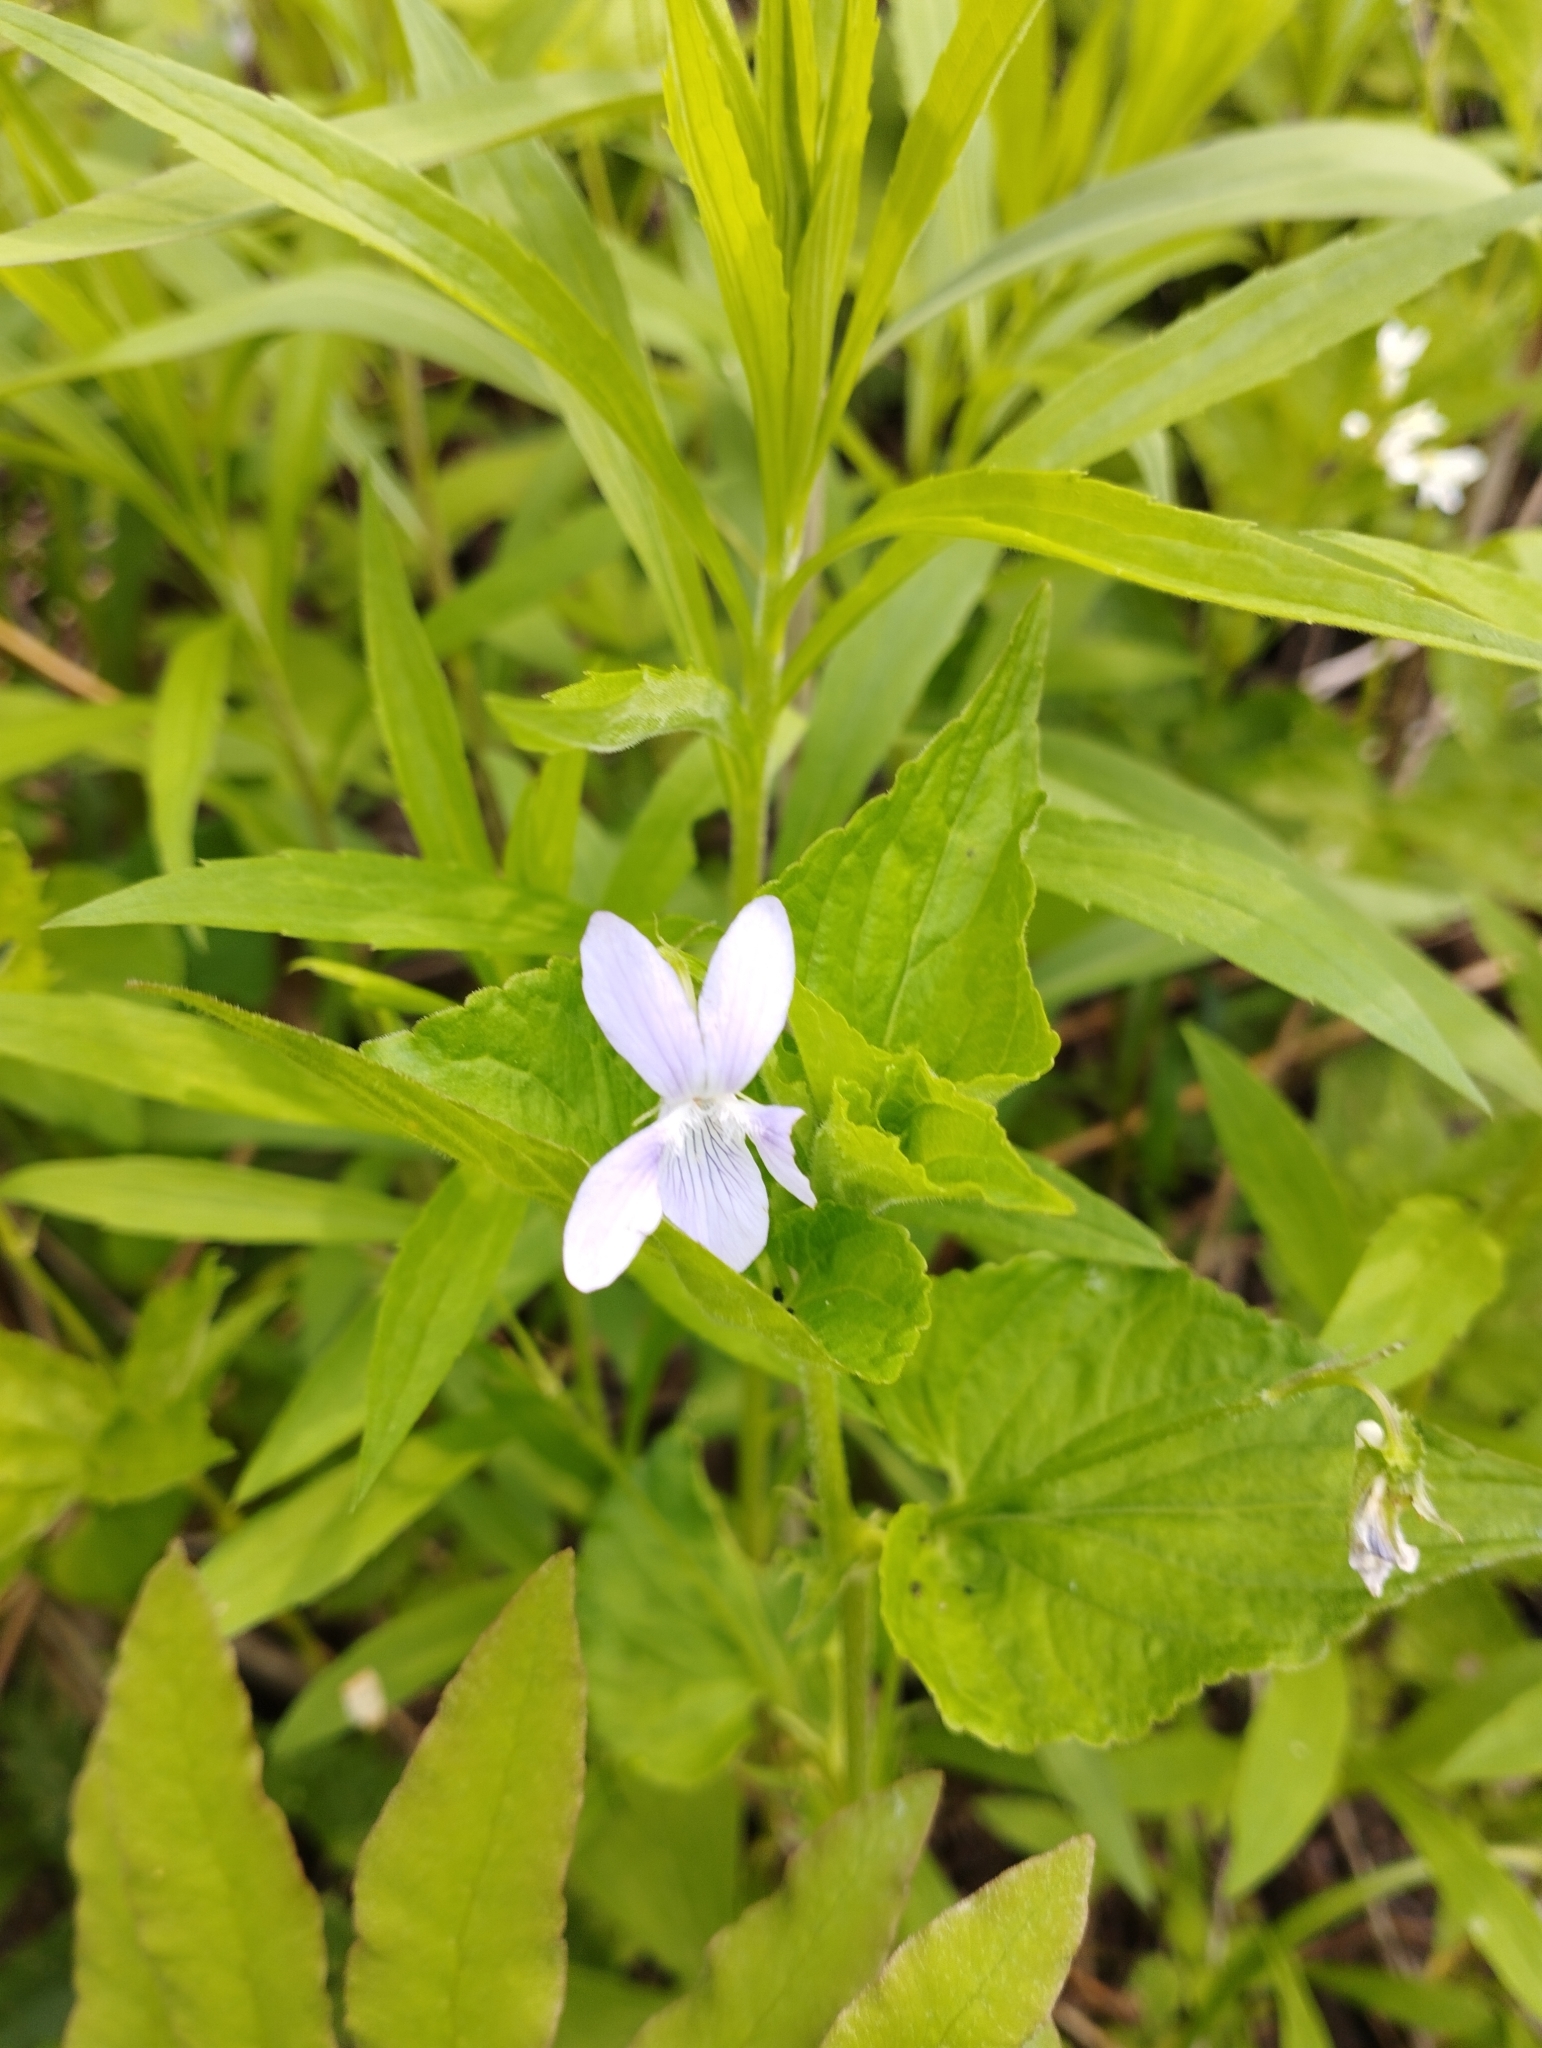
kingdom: Plantae
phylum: Tracheophyta
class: Magnoliopsida
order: Malpighiales
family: Violaceae
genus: Viola
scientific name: Viola acuminata
